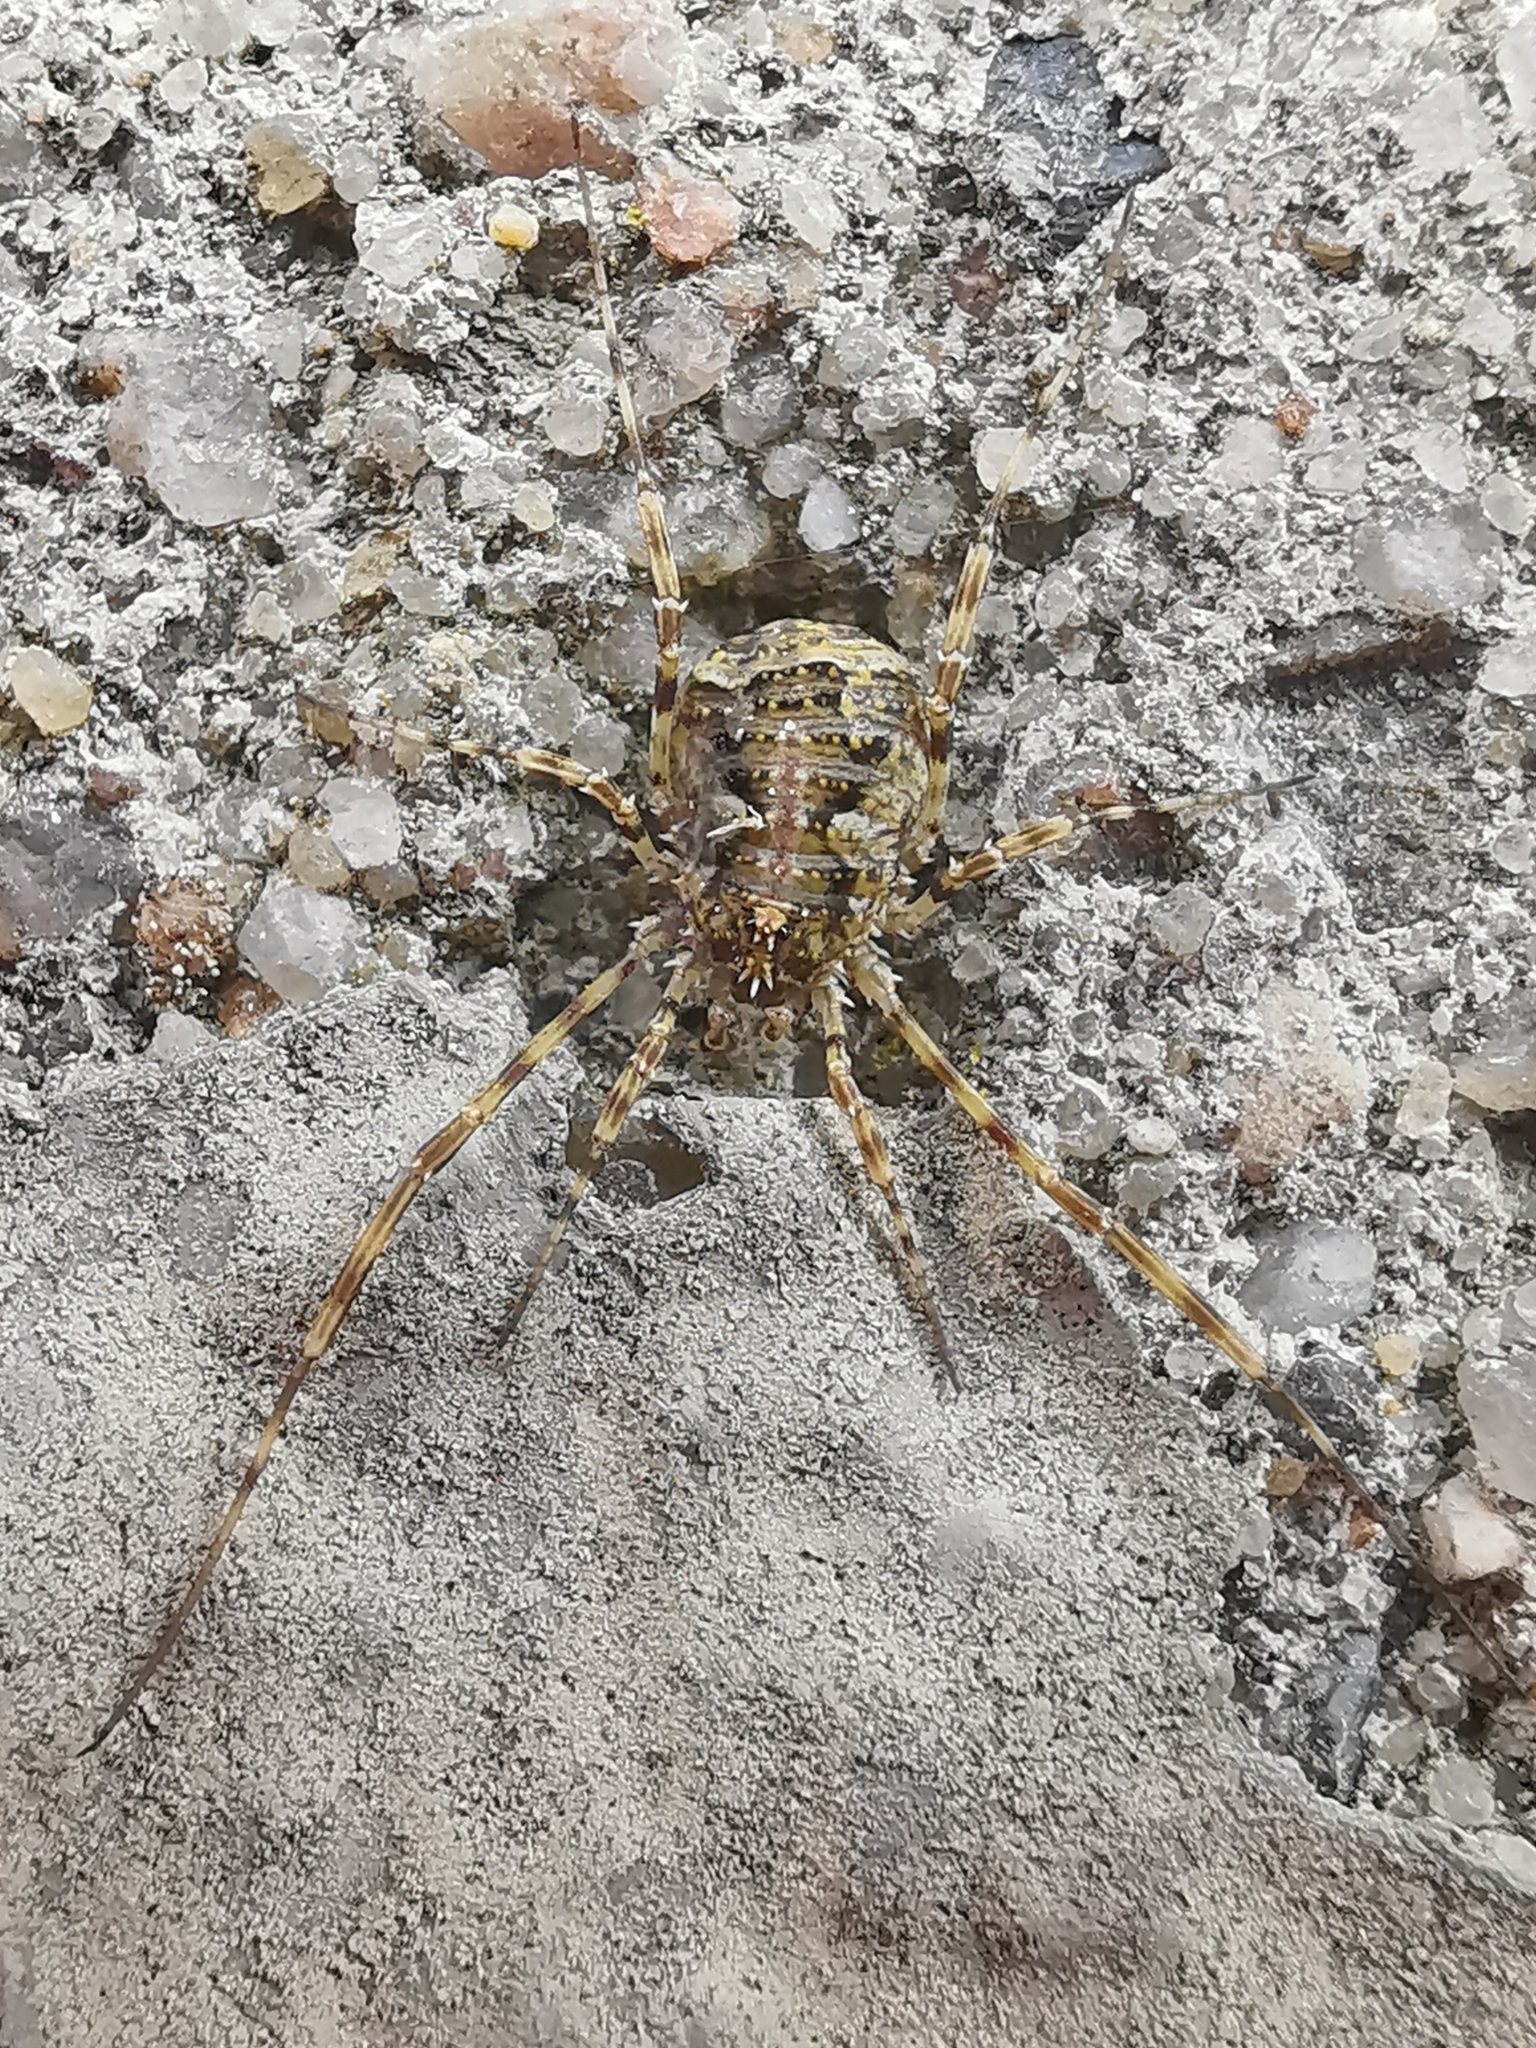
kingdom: Animalia
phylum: Arthropoda
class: Arachnida
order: Opiliones
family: Phalangiidae
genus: Lacinius
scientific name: Lacinius dentiger
